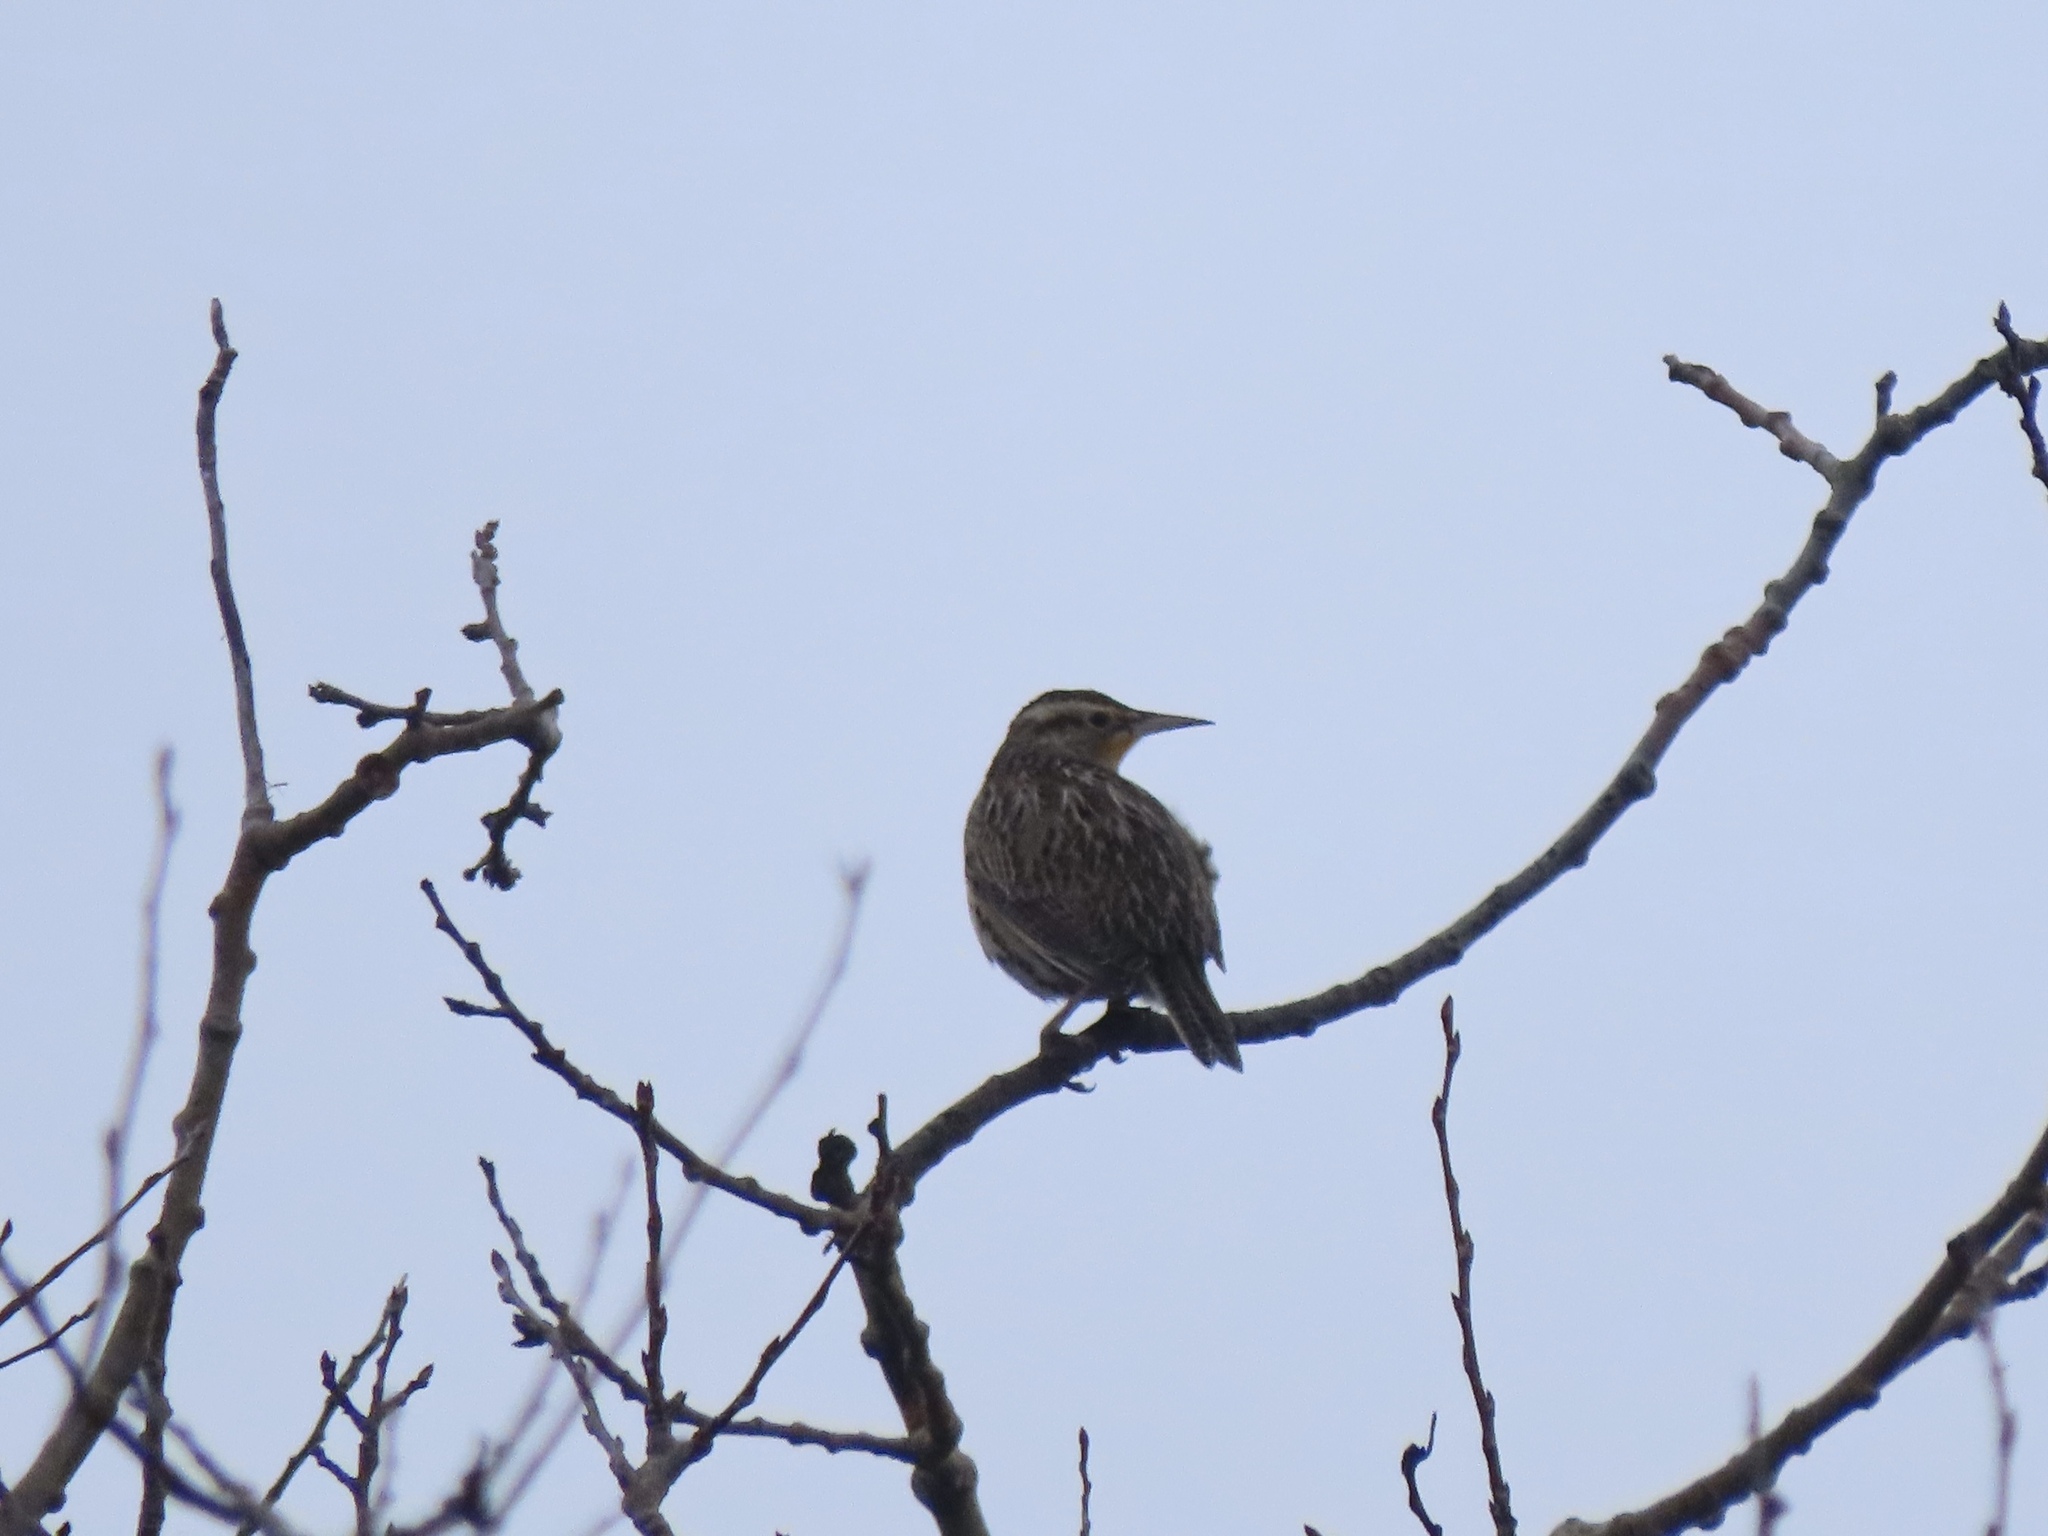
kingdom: Animalia
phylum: Chordata
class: Aves
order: Passeriformes
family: Icteridae
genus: Sturnella
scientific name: Sturnella neglecta
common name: Western meadowlark
